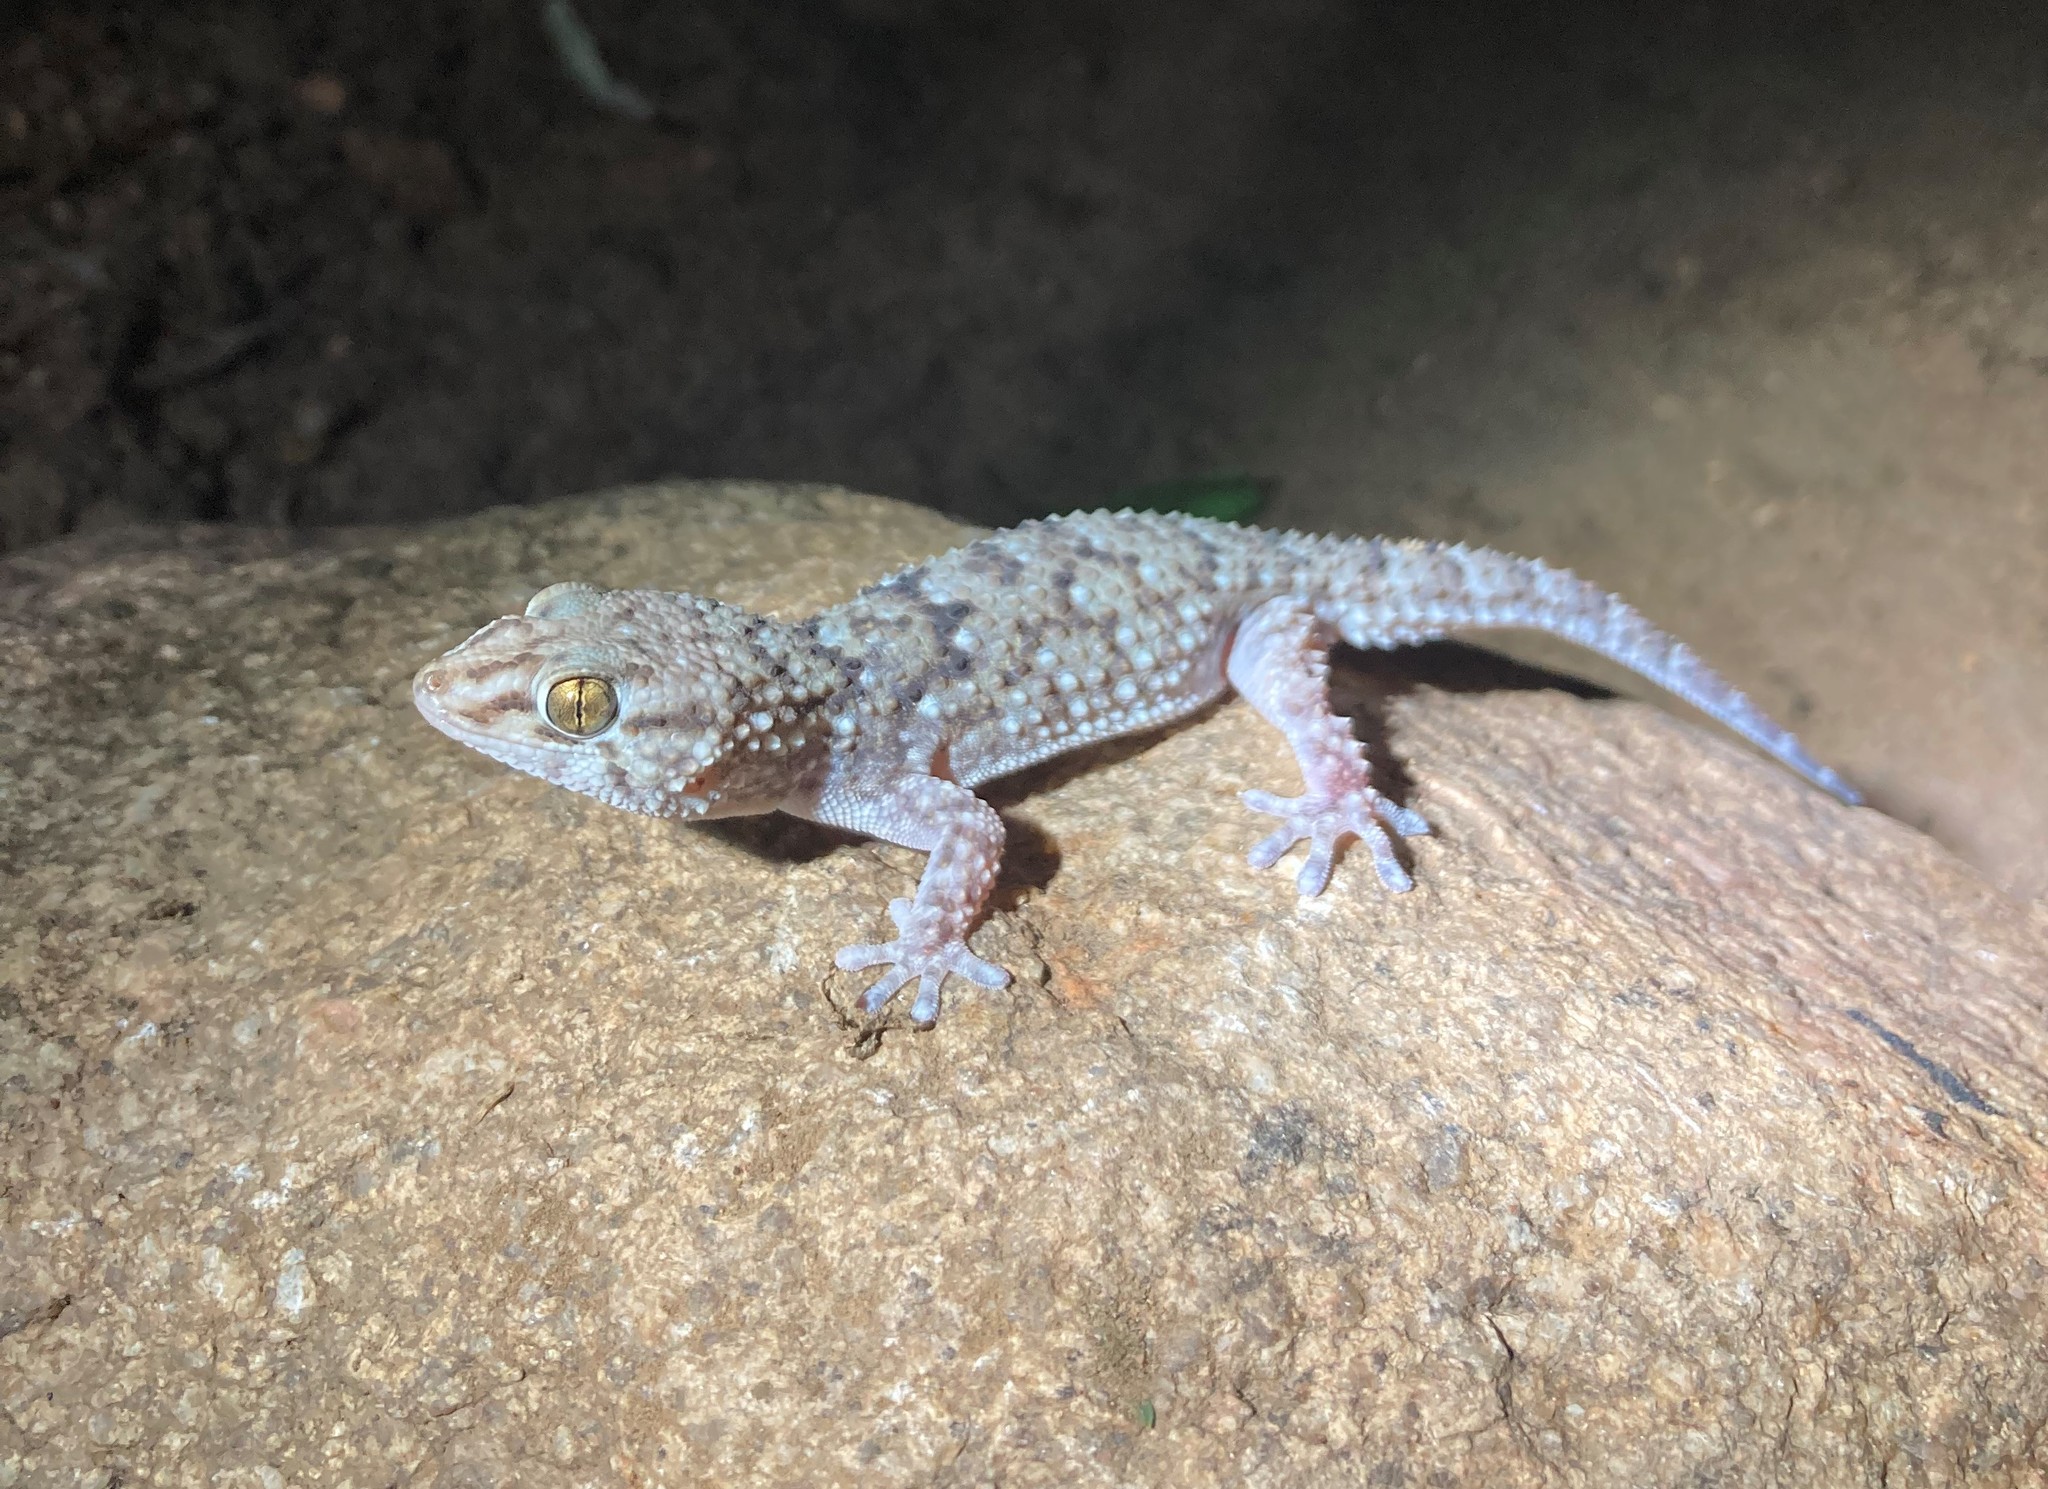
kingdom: Animalia
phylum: Chordata
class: Squamata
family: Gekkonidae
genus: Chondrodactylus
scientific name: Chondrodactylus turneri
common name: Turner’s gecko
